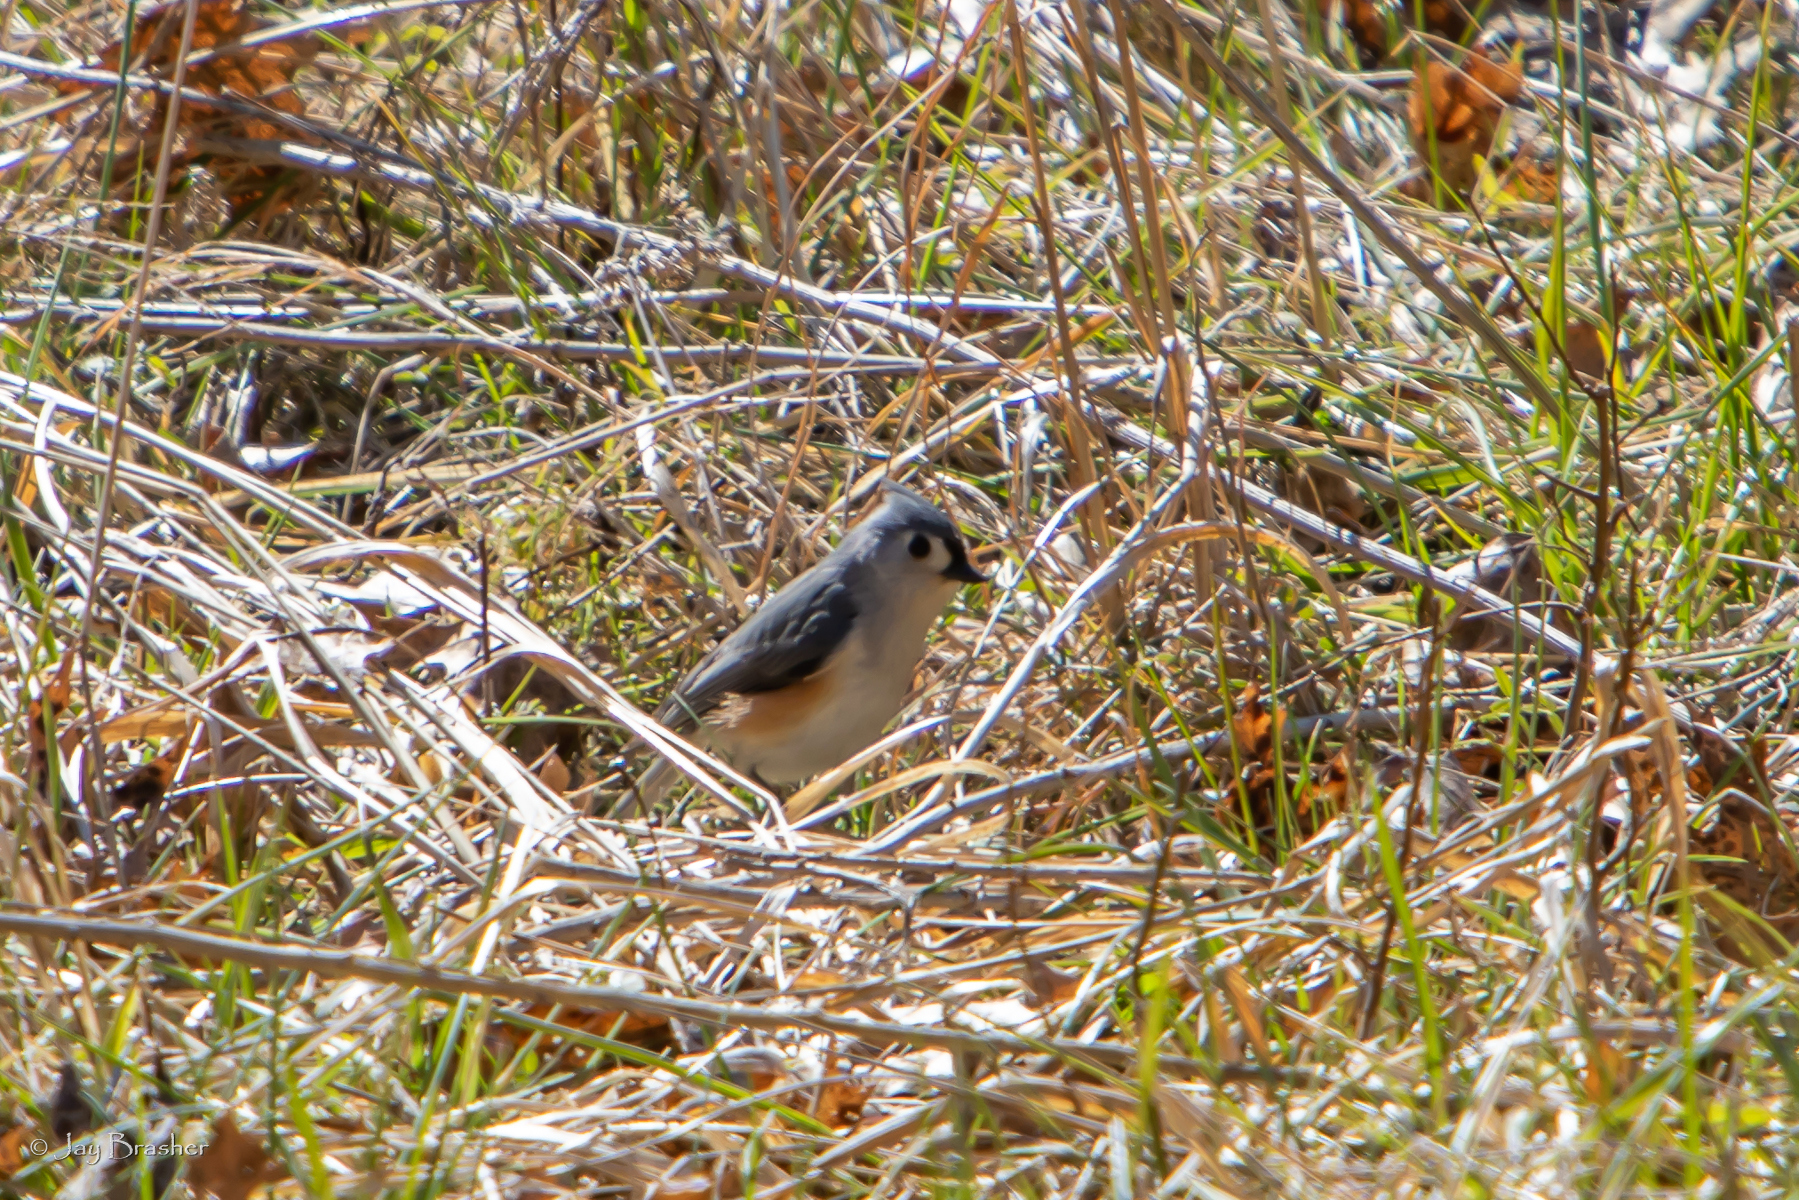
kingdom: Animalia
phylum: Chordata
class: Aves
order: Passeriformes
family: Paridae
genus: Baeolophus
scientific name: Baeolophus bicolor
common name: Tufted titmouse
